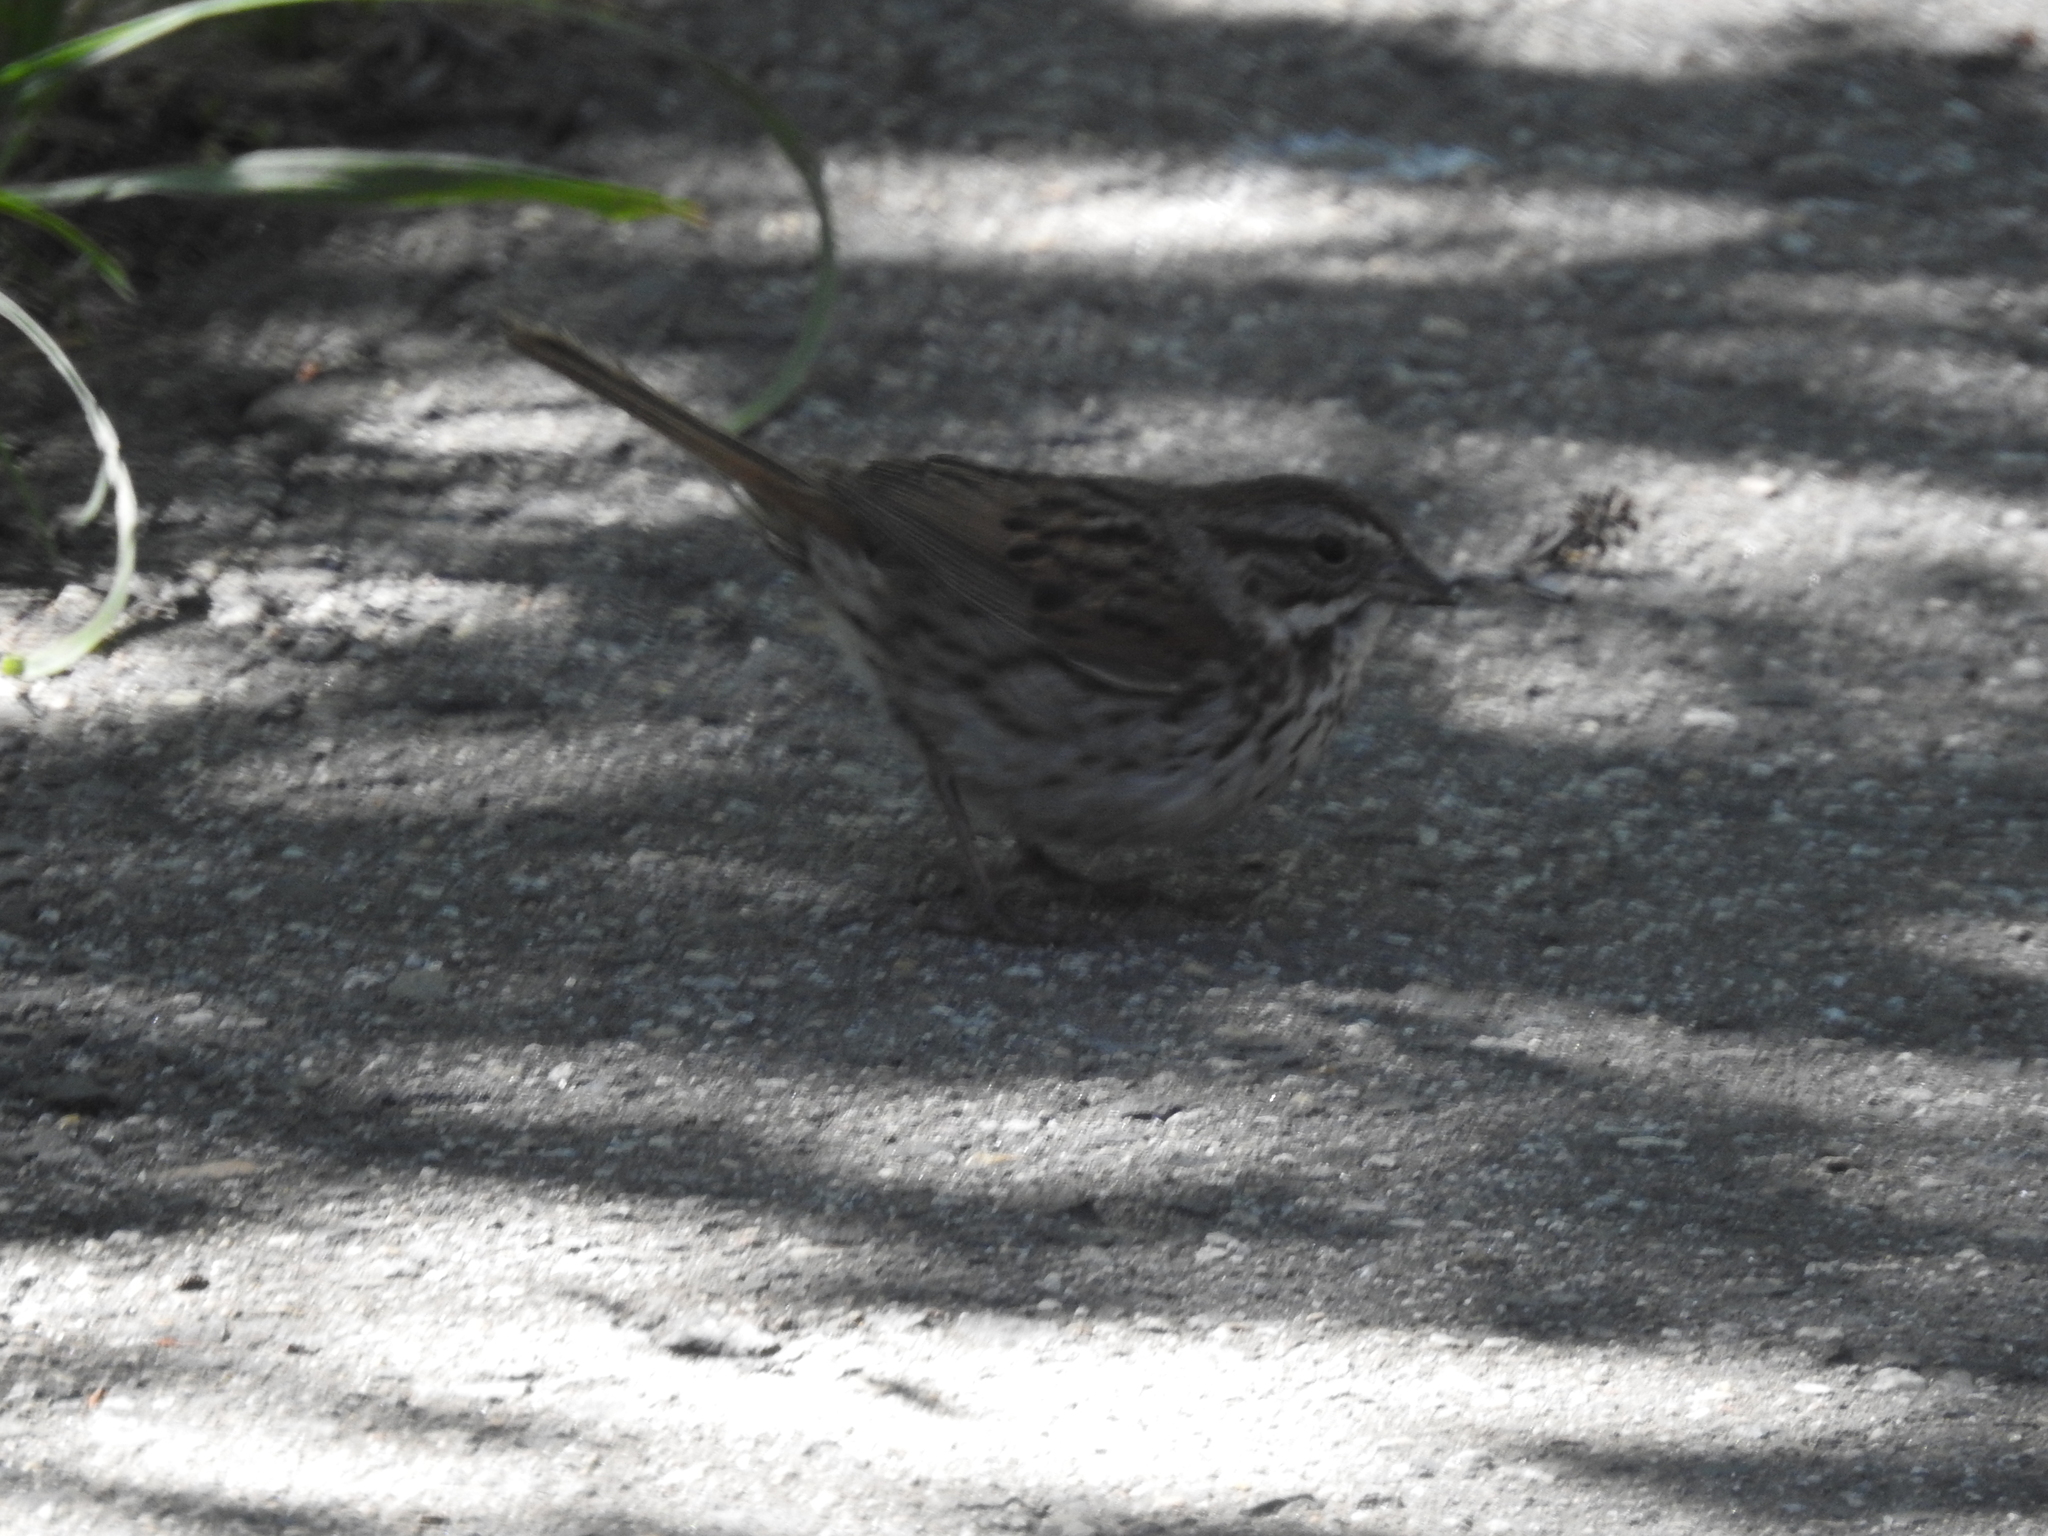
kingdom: Animalia
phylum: Chordata
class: Aves
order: Passeriformes
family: Passerellidae
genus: Melospiza
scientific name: Melospiza melodia
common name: Song sparrow
